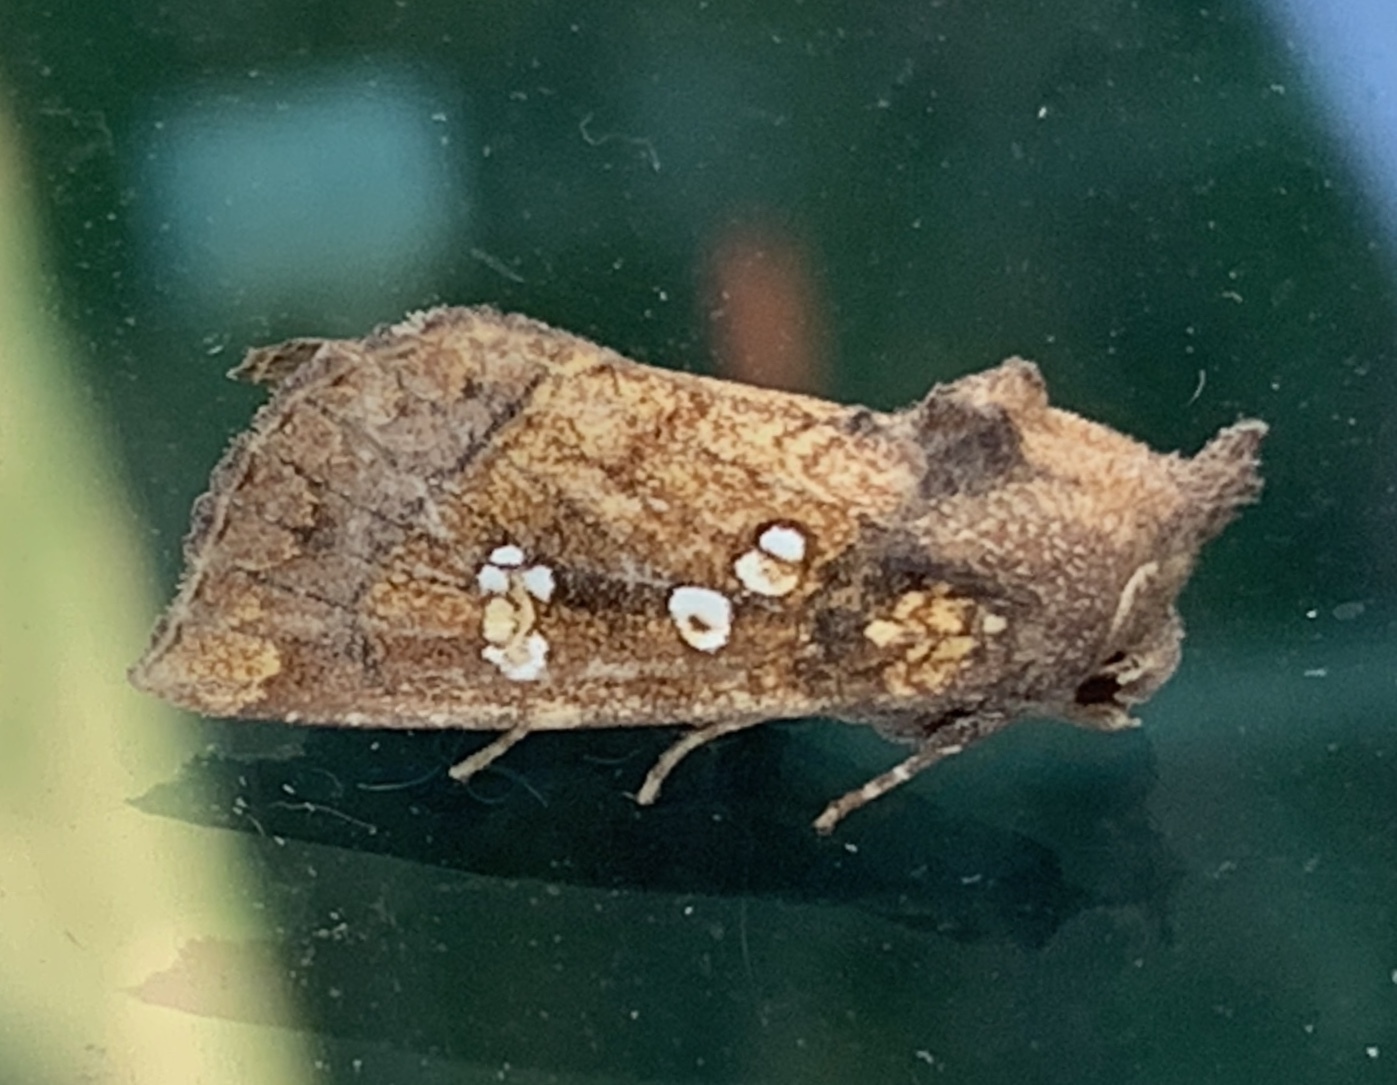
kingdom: Animalia
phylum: Arthropoda
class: Insecta
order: Lepidoptera
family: Noctuidae
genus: Papaipema
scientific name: Papaipema baptisiae
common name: Wild indigo borer moth
